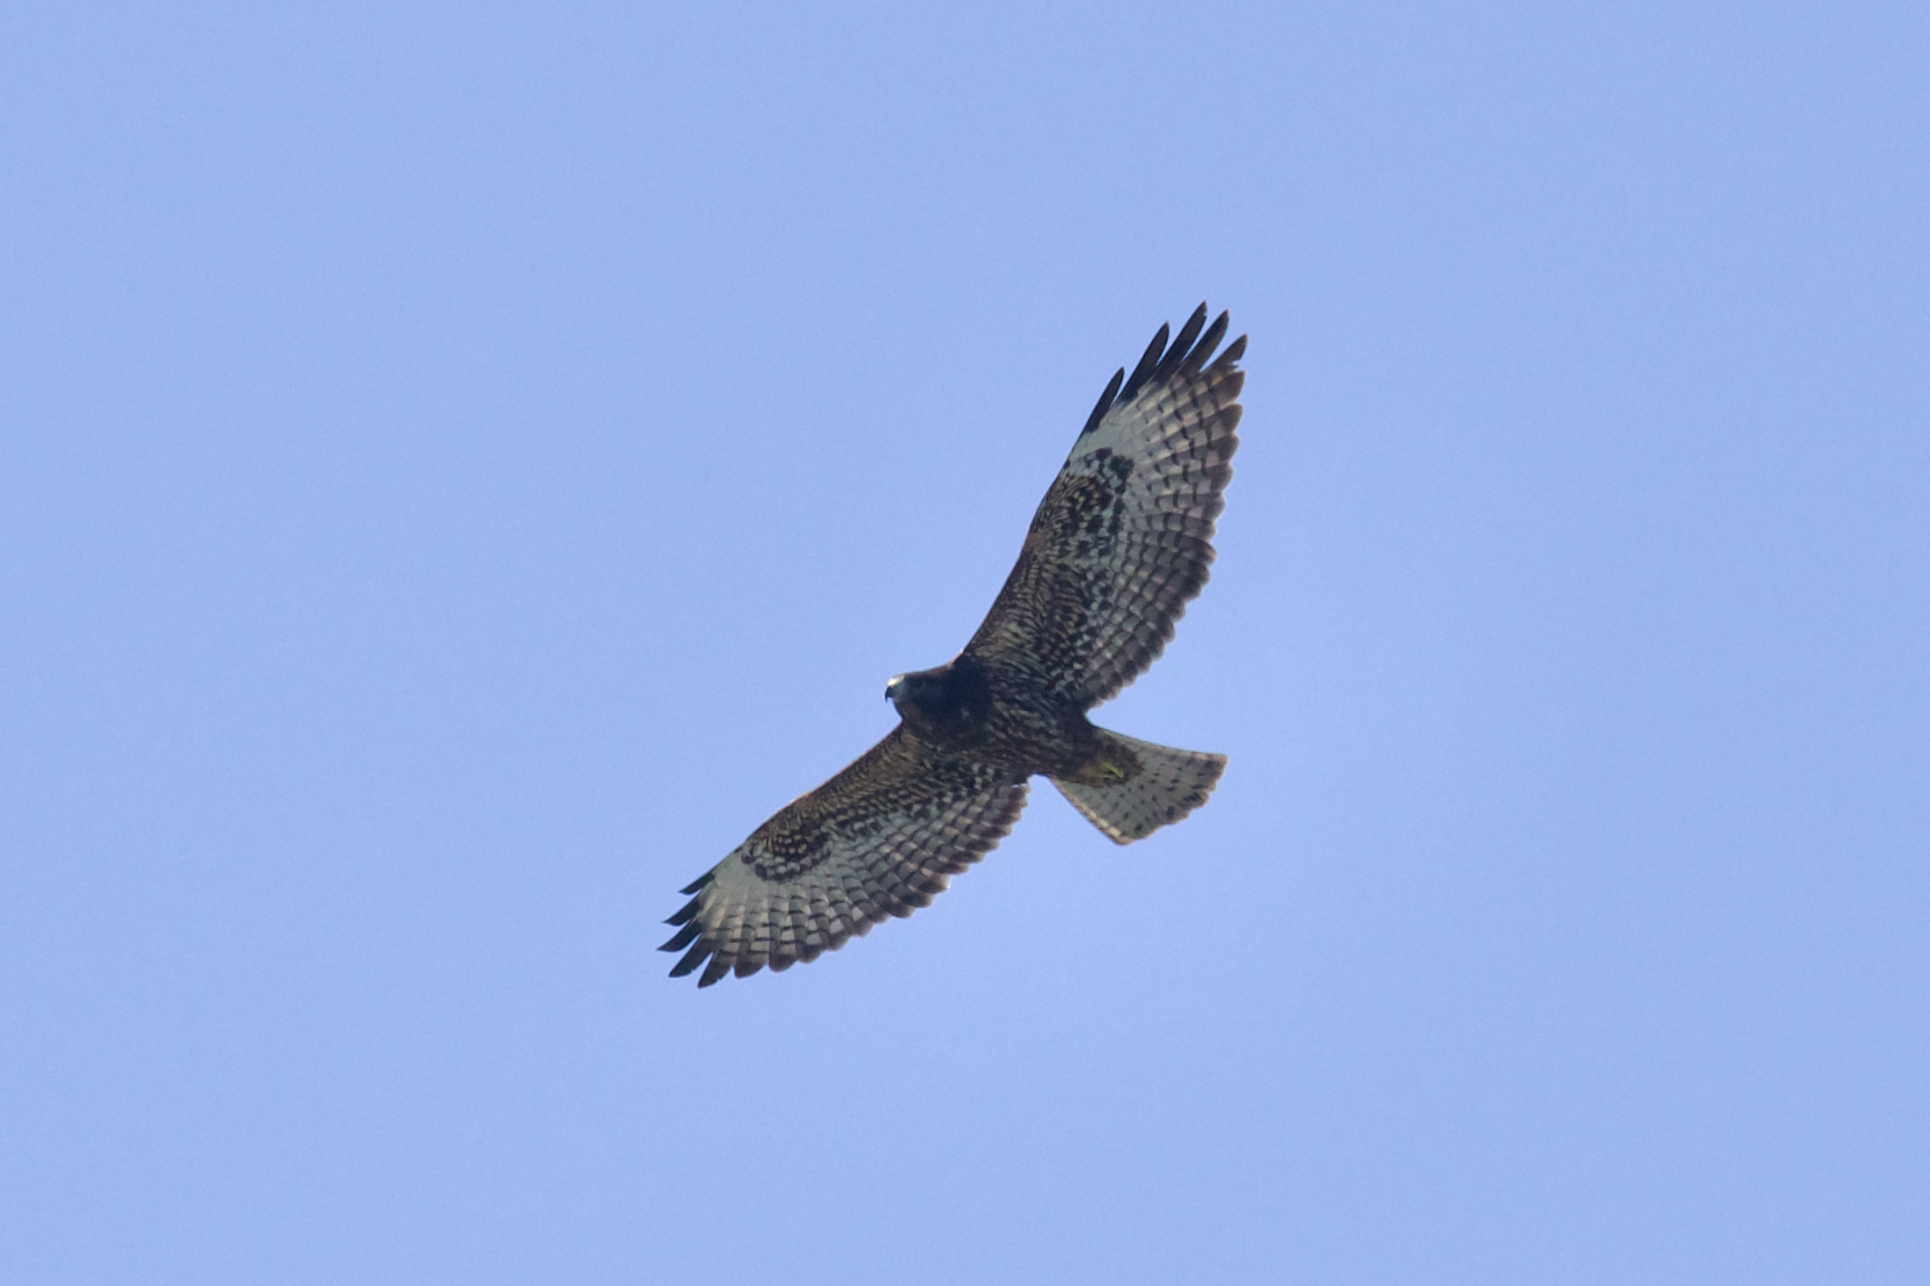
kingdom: Animalia
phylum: Chordata
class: Aves
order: Accipitriformes
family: Accipitridae
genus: Buteo
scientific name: Buteo brachyurus
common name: Short-tailed hawk
